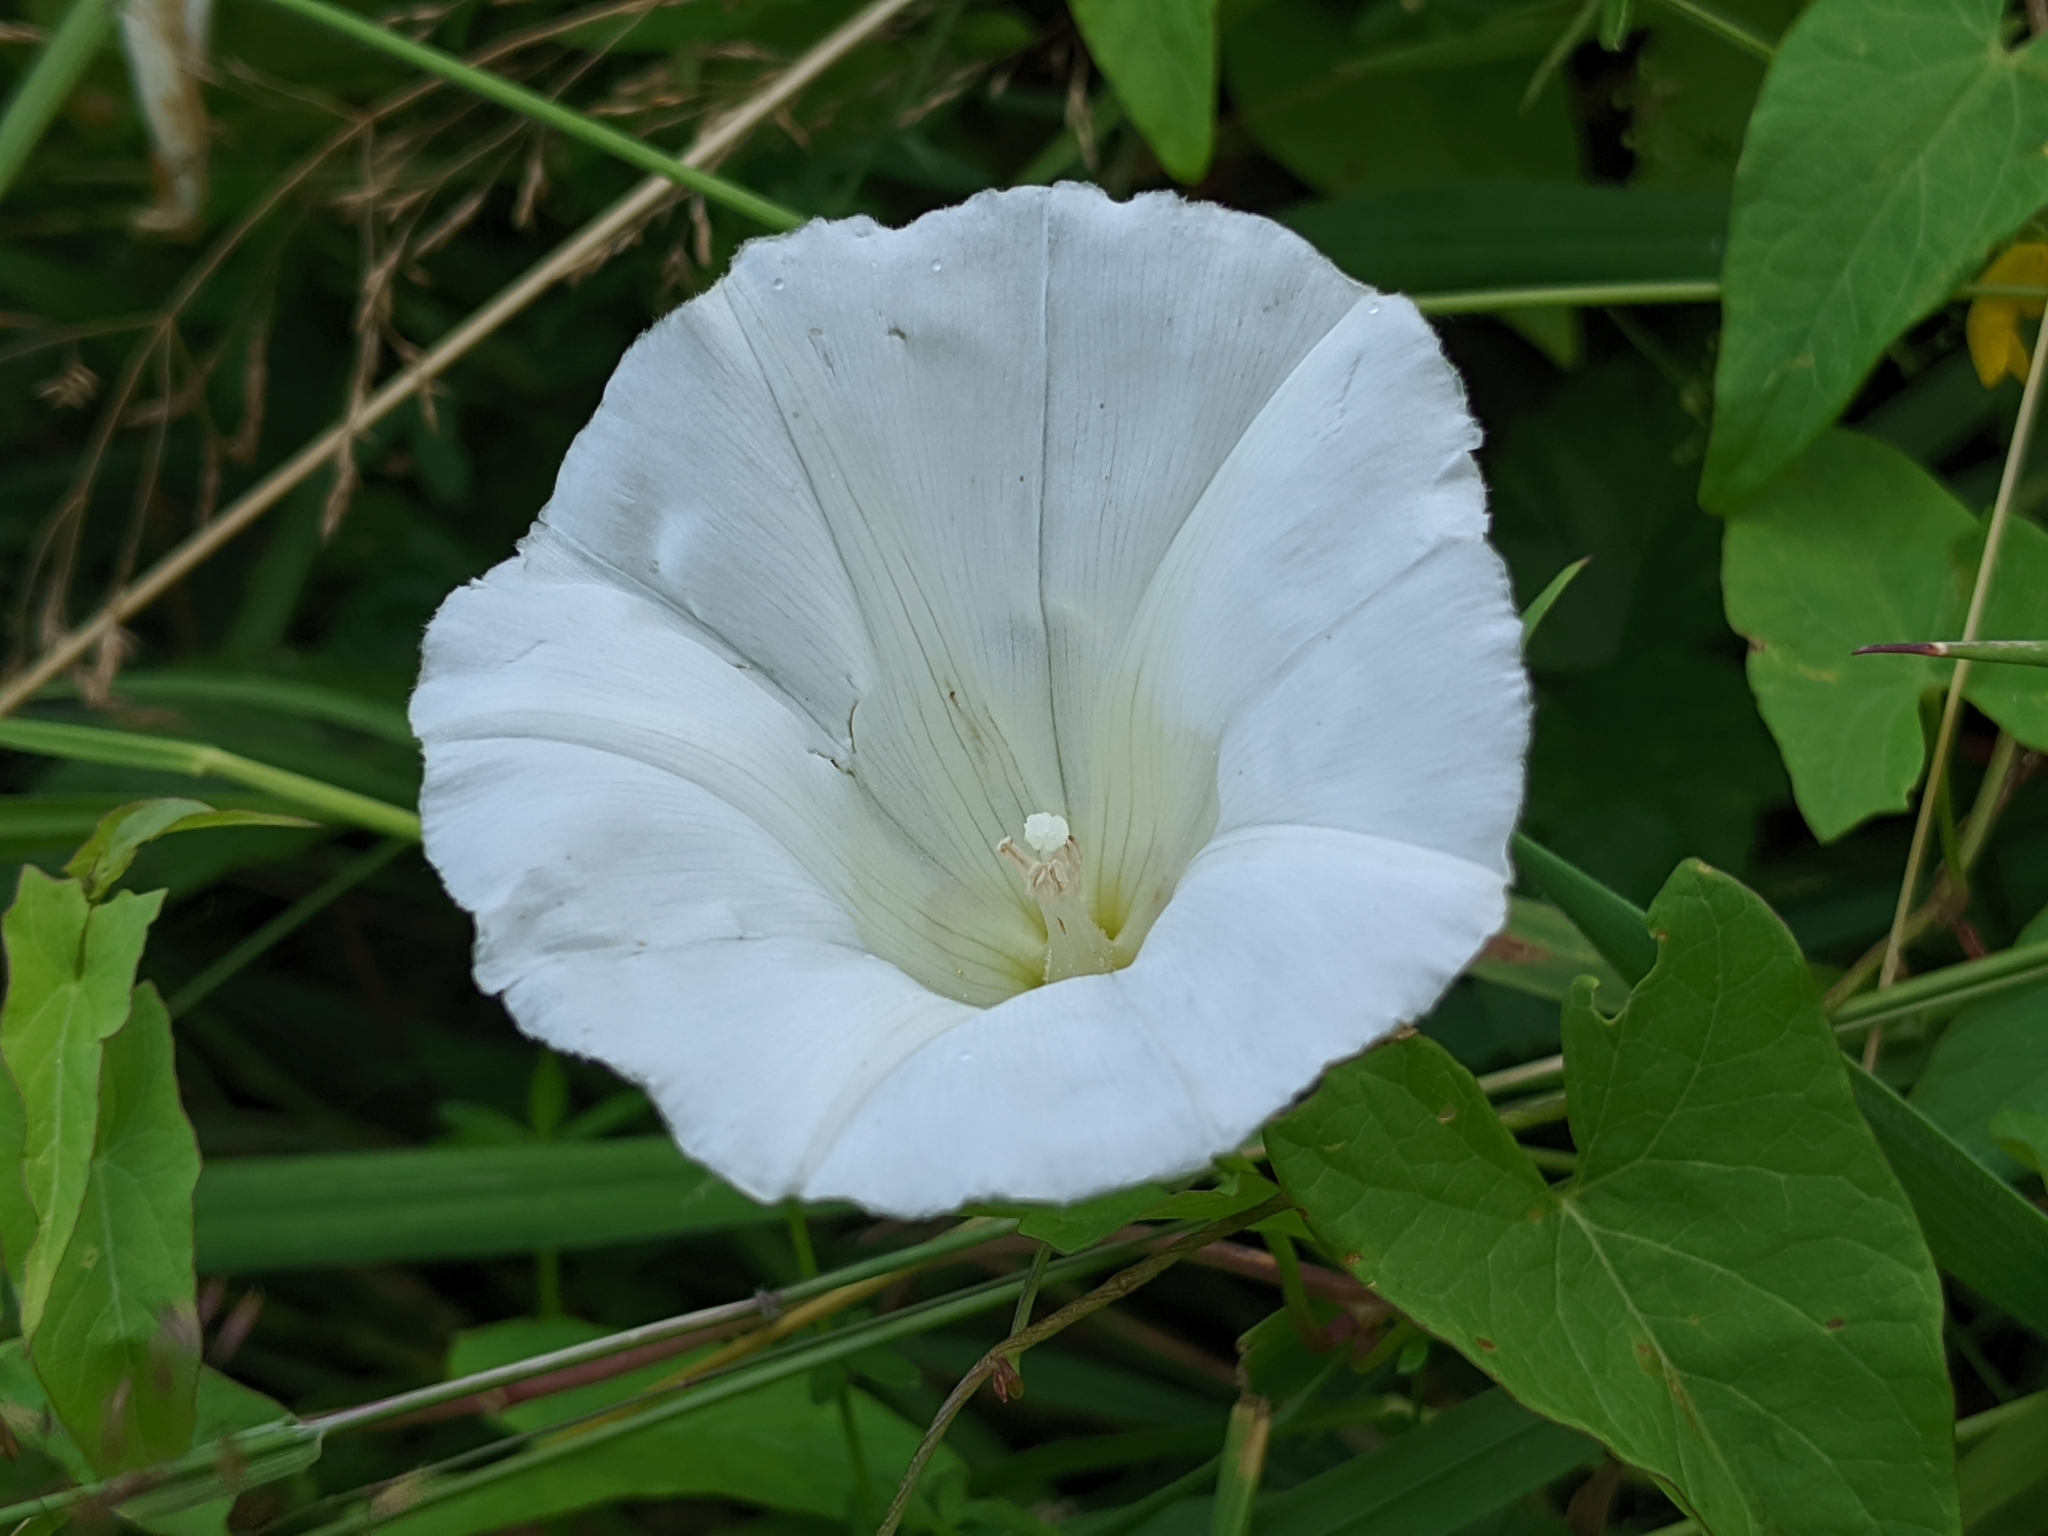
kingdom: Plantae
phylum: Tracheophyta
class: Magnoliopsida
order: Solanales
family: Convolvulaceae
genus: Calystegia
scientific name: Calystegia sepium
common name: Hedge bindweed
